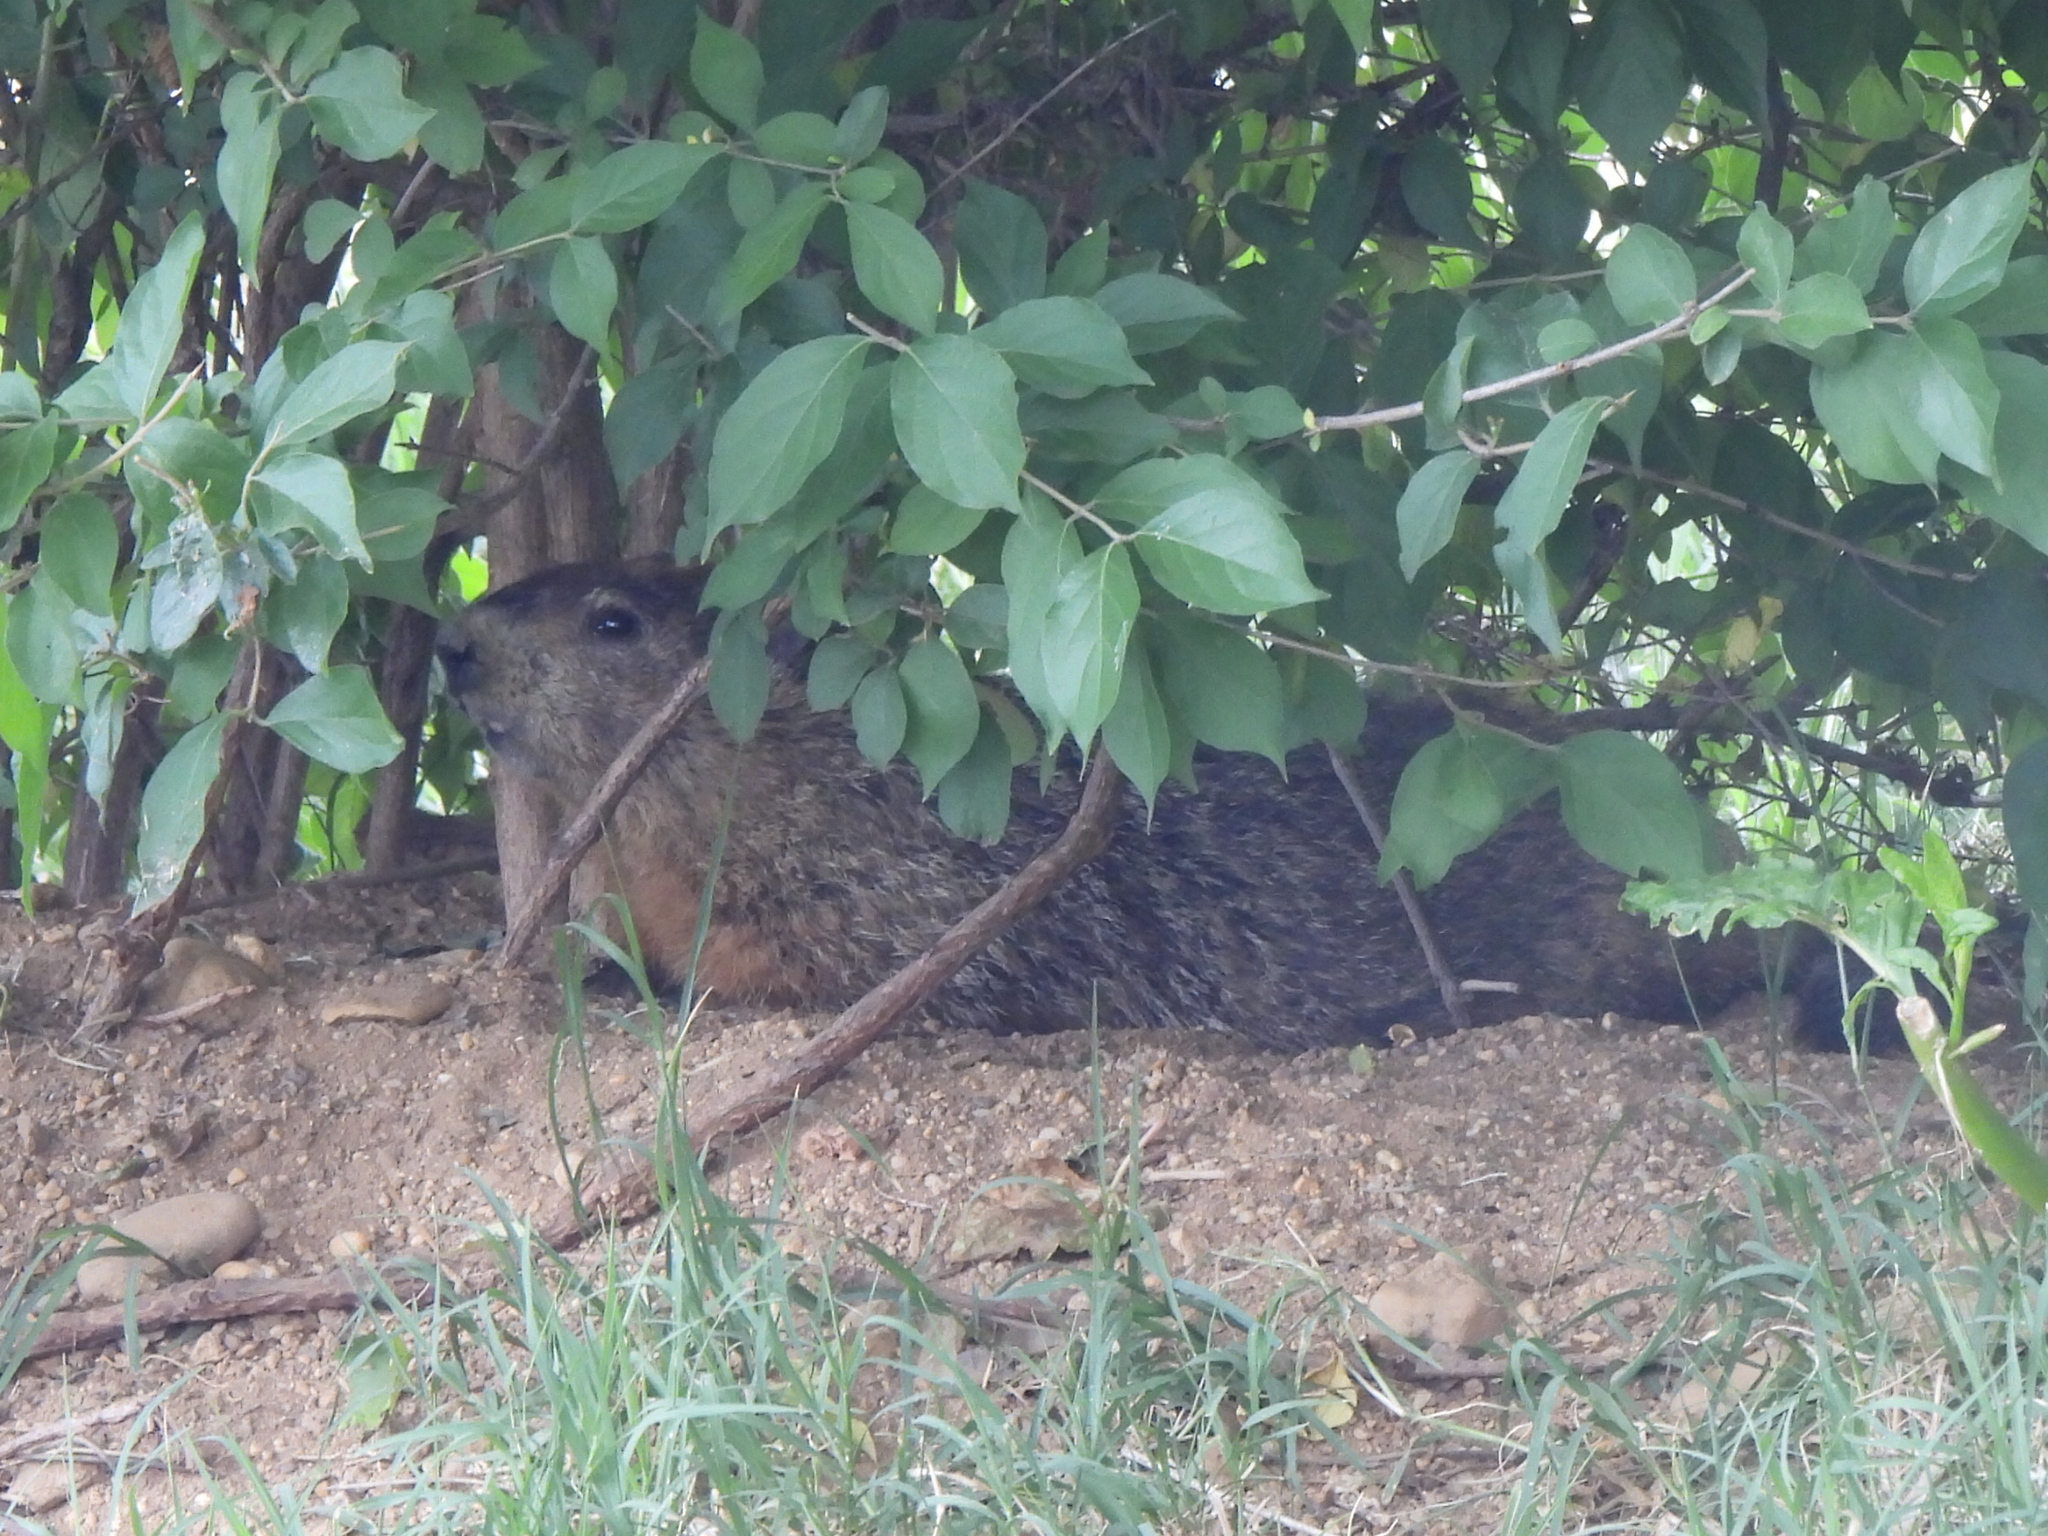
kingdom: Animalia
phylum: Chordata
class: Mammalia
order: Rodentia
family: Sciuridae
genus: Marmota
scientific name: Marmota monax
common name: Groundhog
